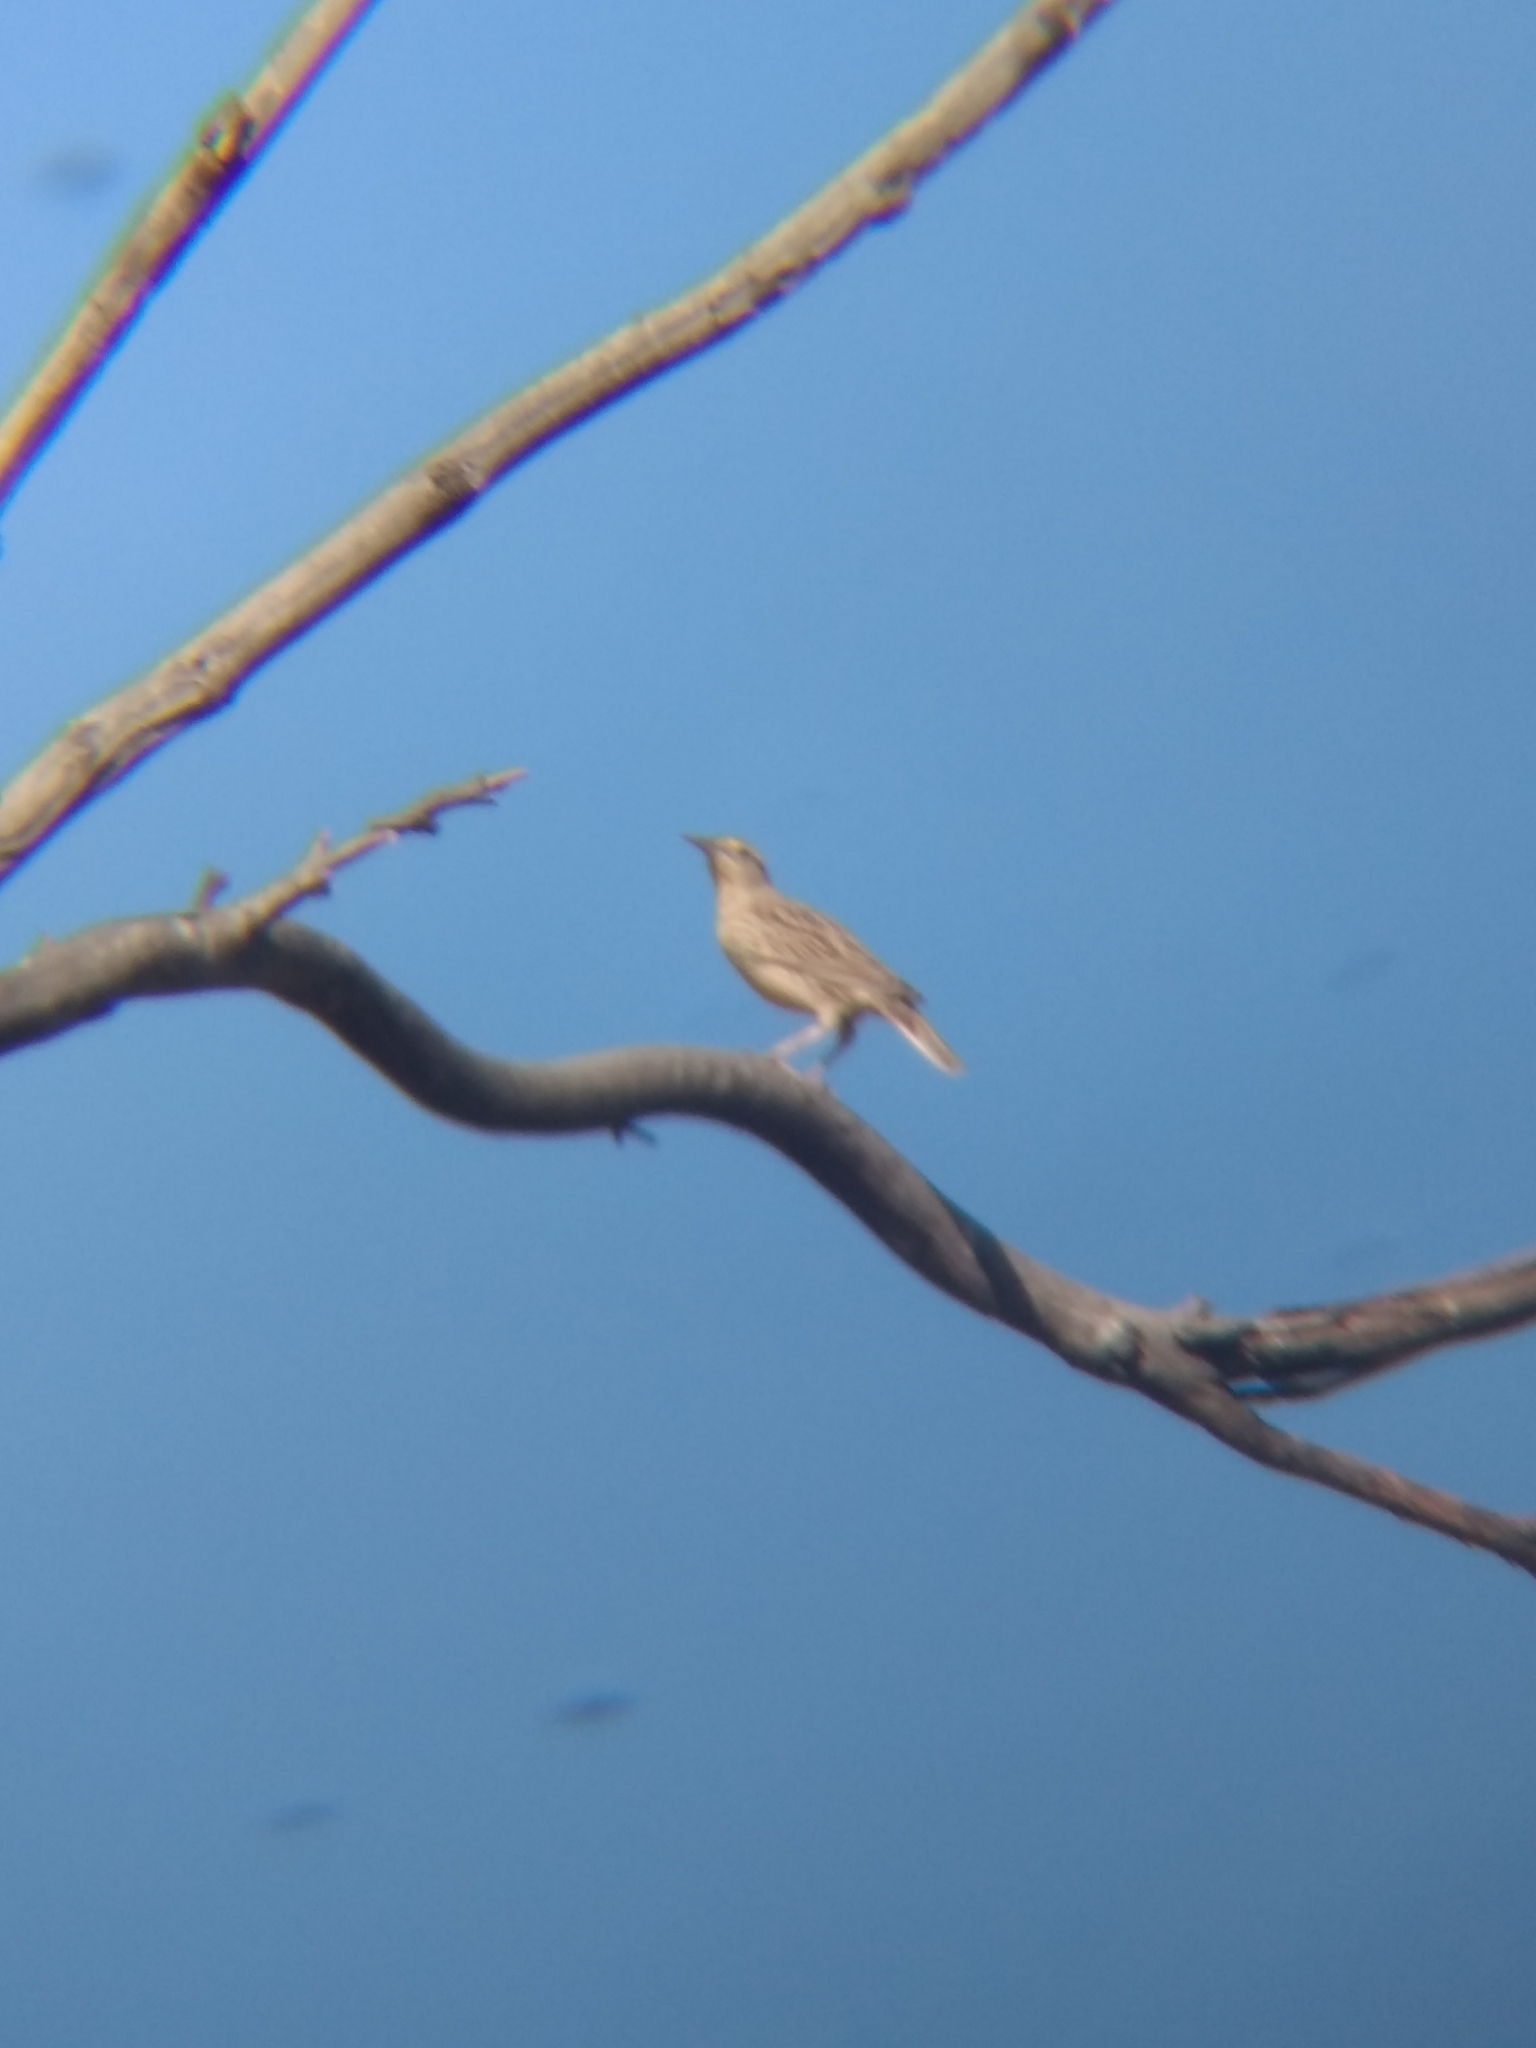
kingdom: Animalia
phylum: Chordata
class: Aves
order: Passeriformes
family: Icteridae
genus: Sturnella
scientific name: Sturnella neglecta
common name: Western meadowlark
